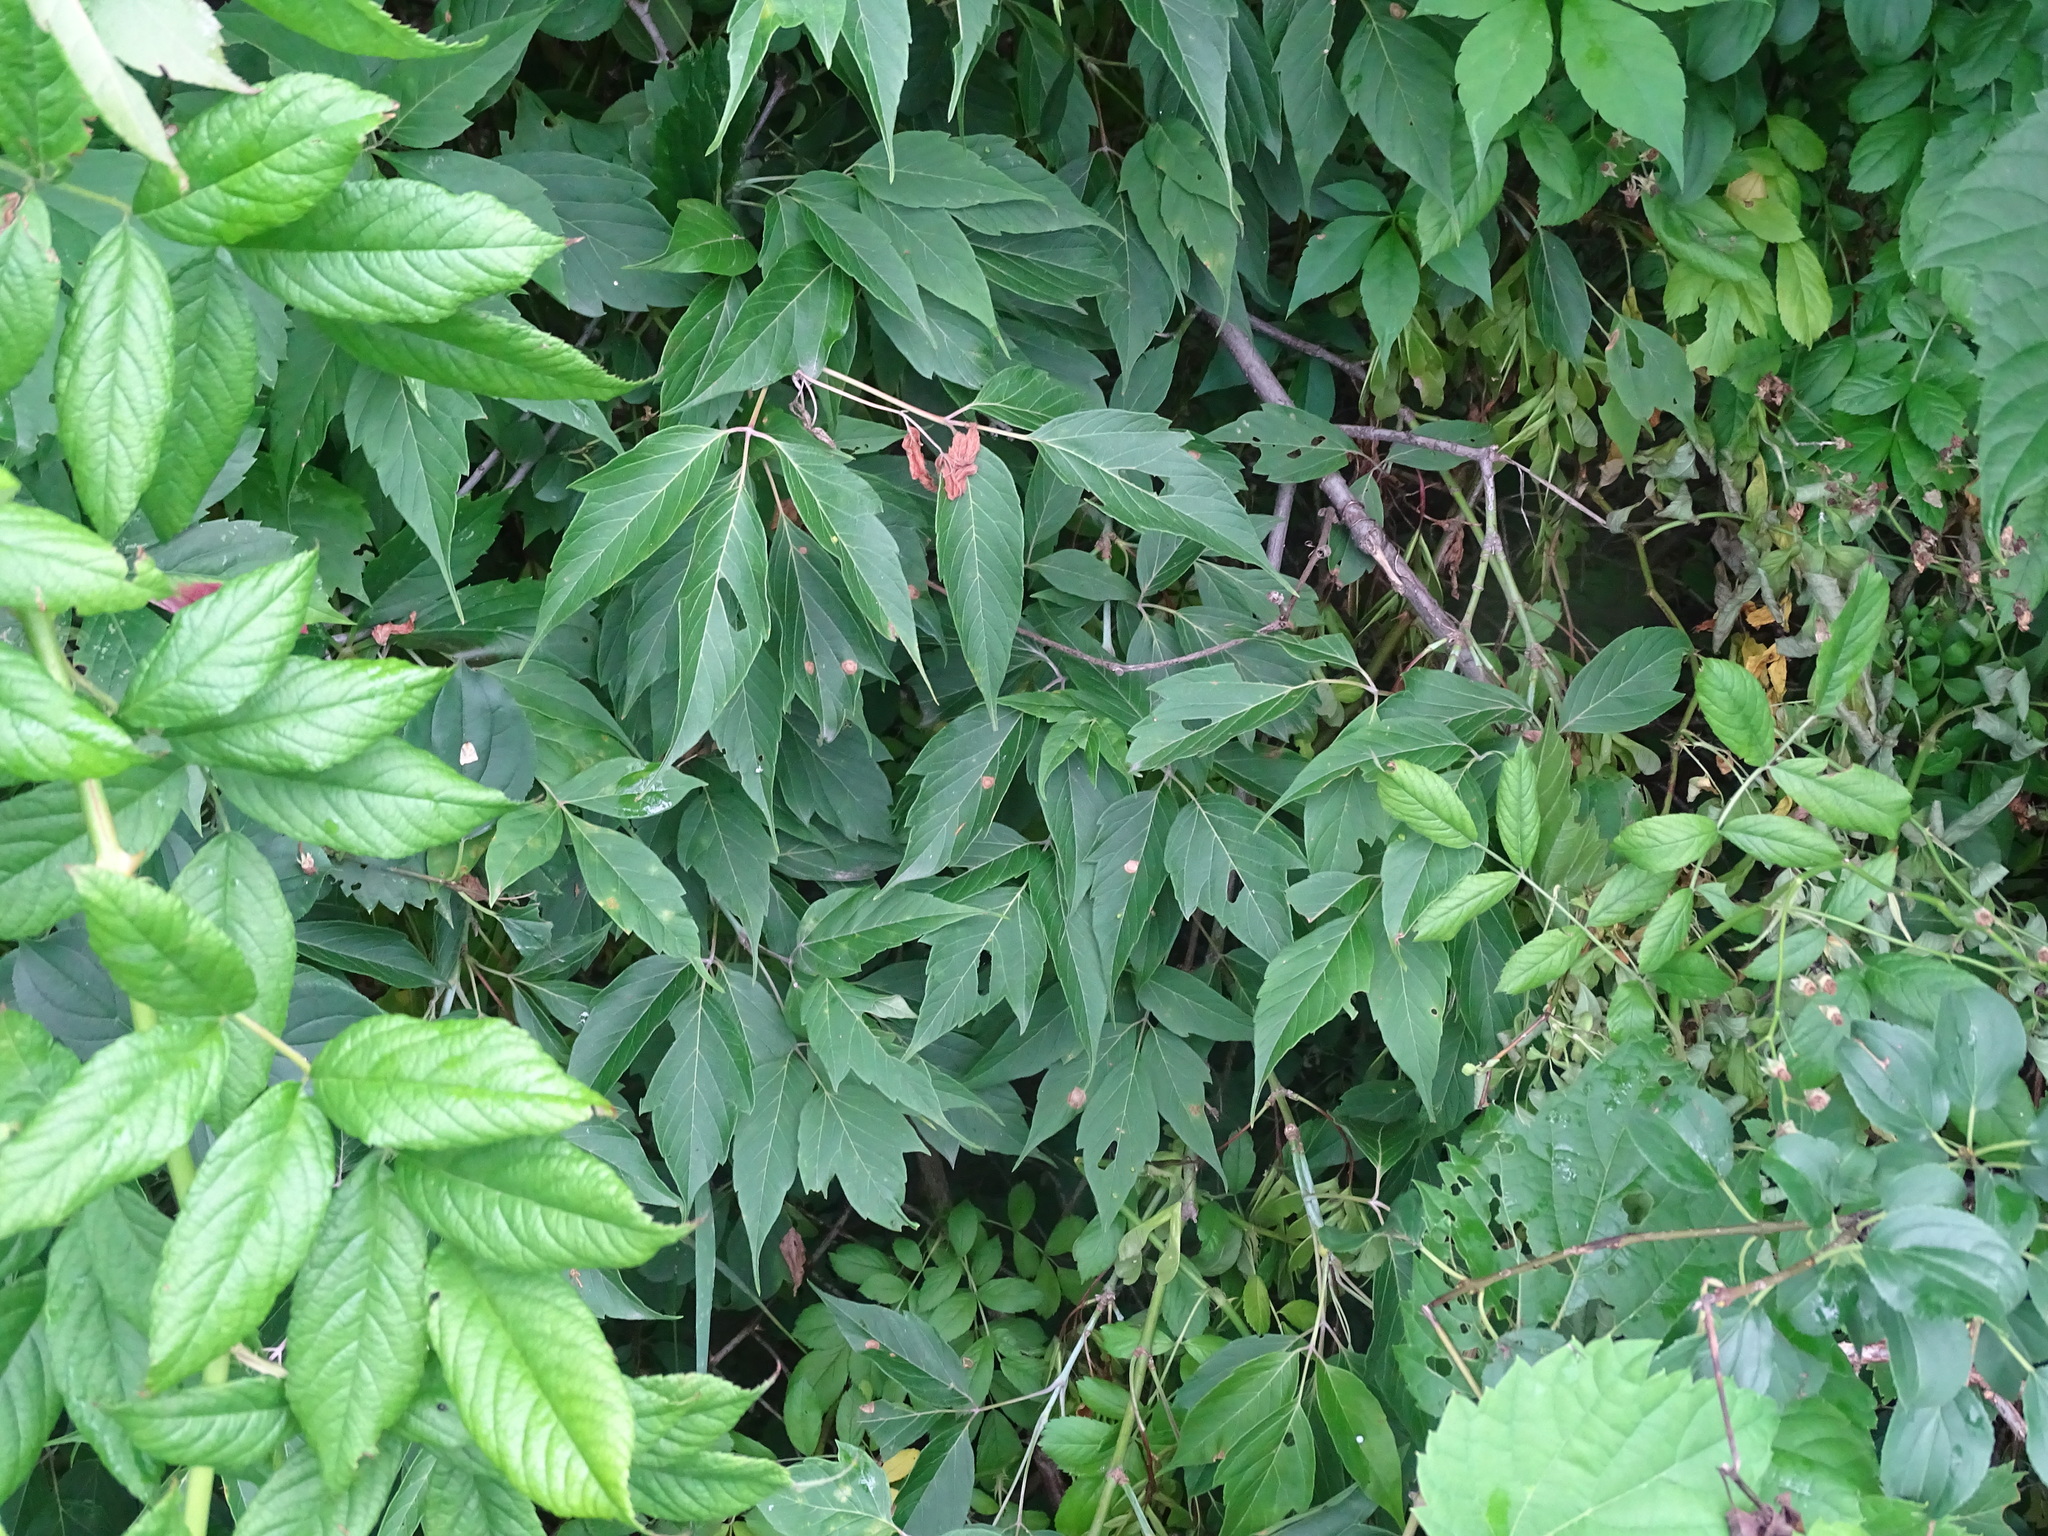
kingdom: Plantae
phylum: Tracheophyta
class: Magnoliopsida
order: Sapindales
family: Sapindaceae
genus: Acer
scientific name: Acer negundo
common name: Ashleaf maple
